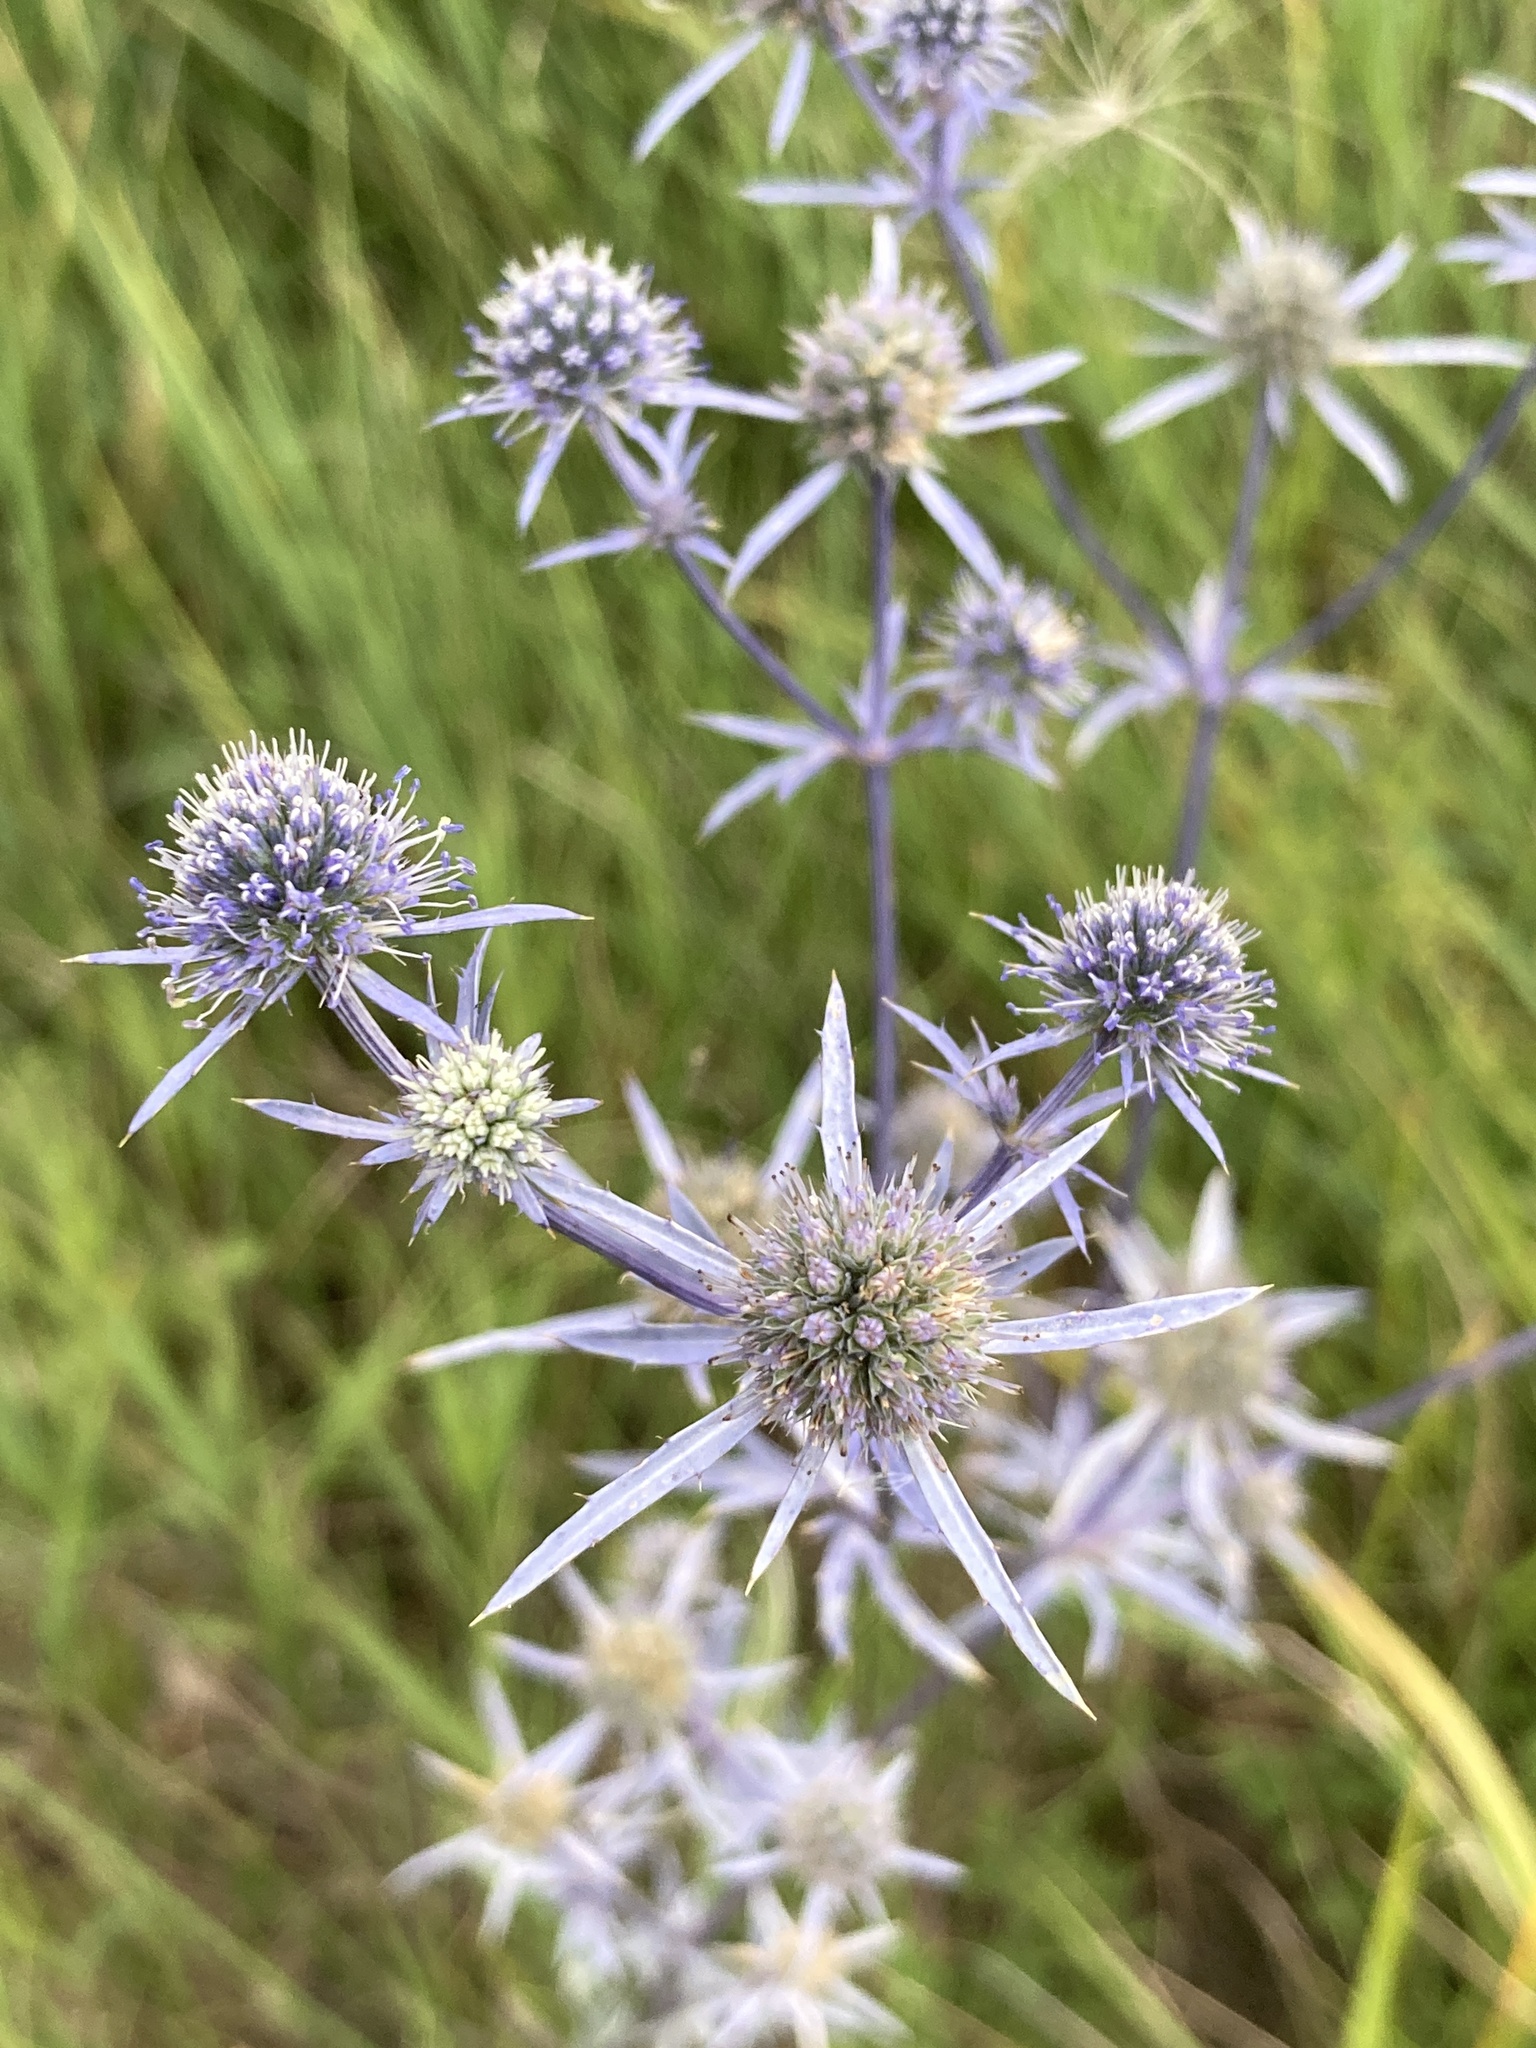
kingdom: Plantae
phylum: Tracheophyta
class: Magnoliopsida
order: Apiales
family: Apiaceae
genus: Eryngium
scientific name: Eryngium planum
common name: Blue eryngo
